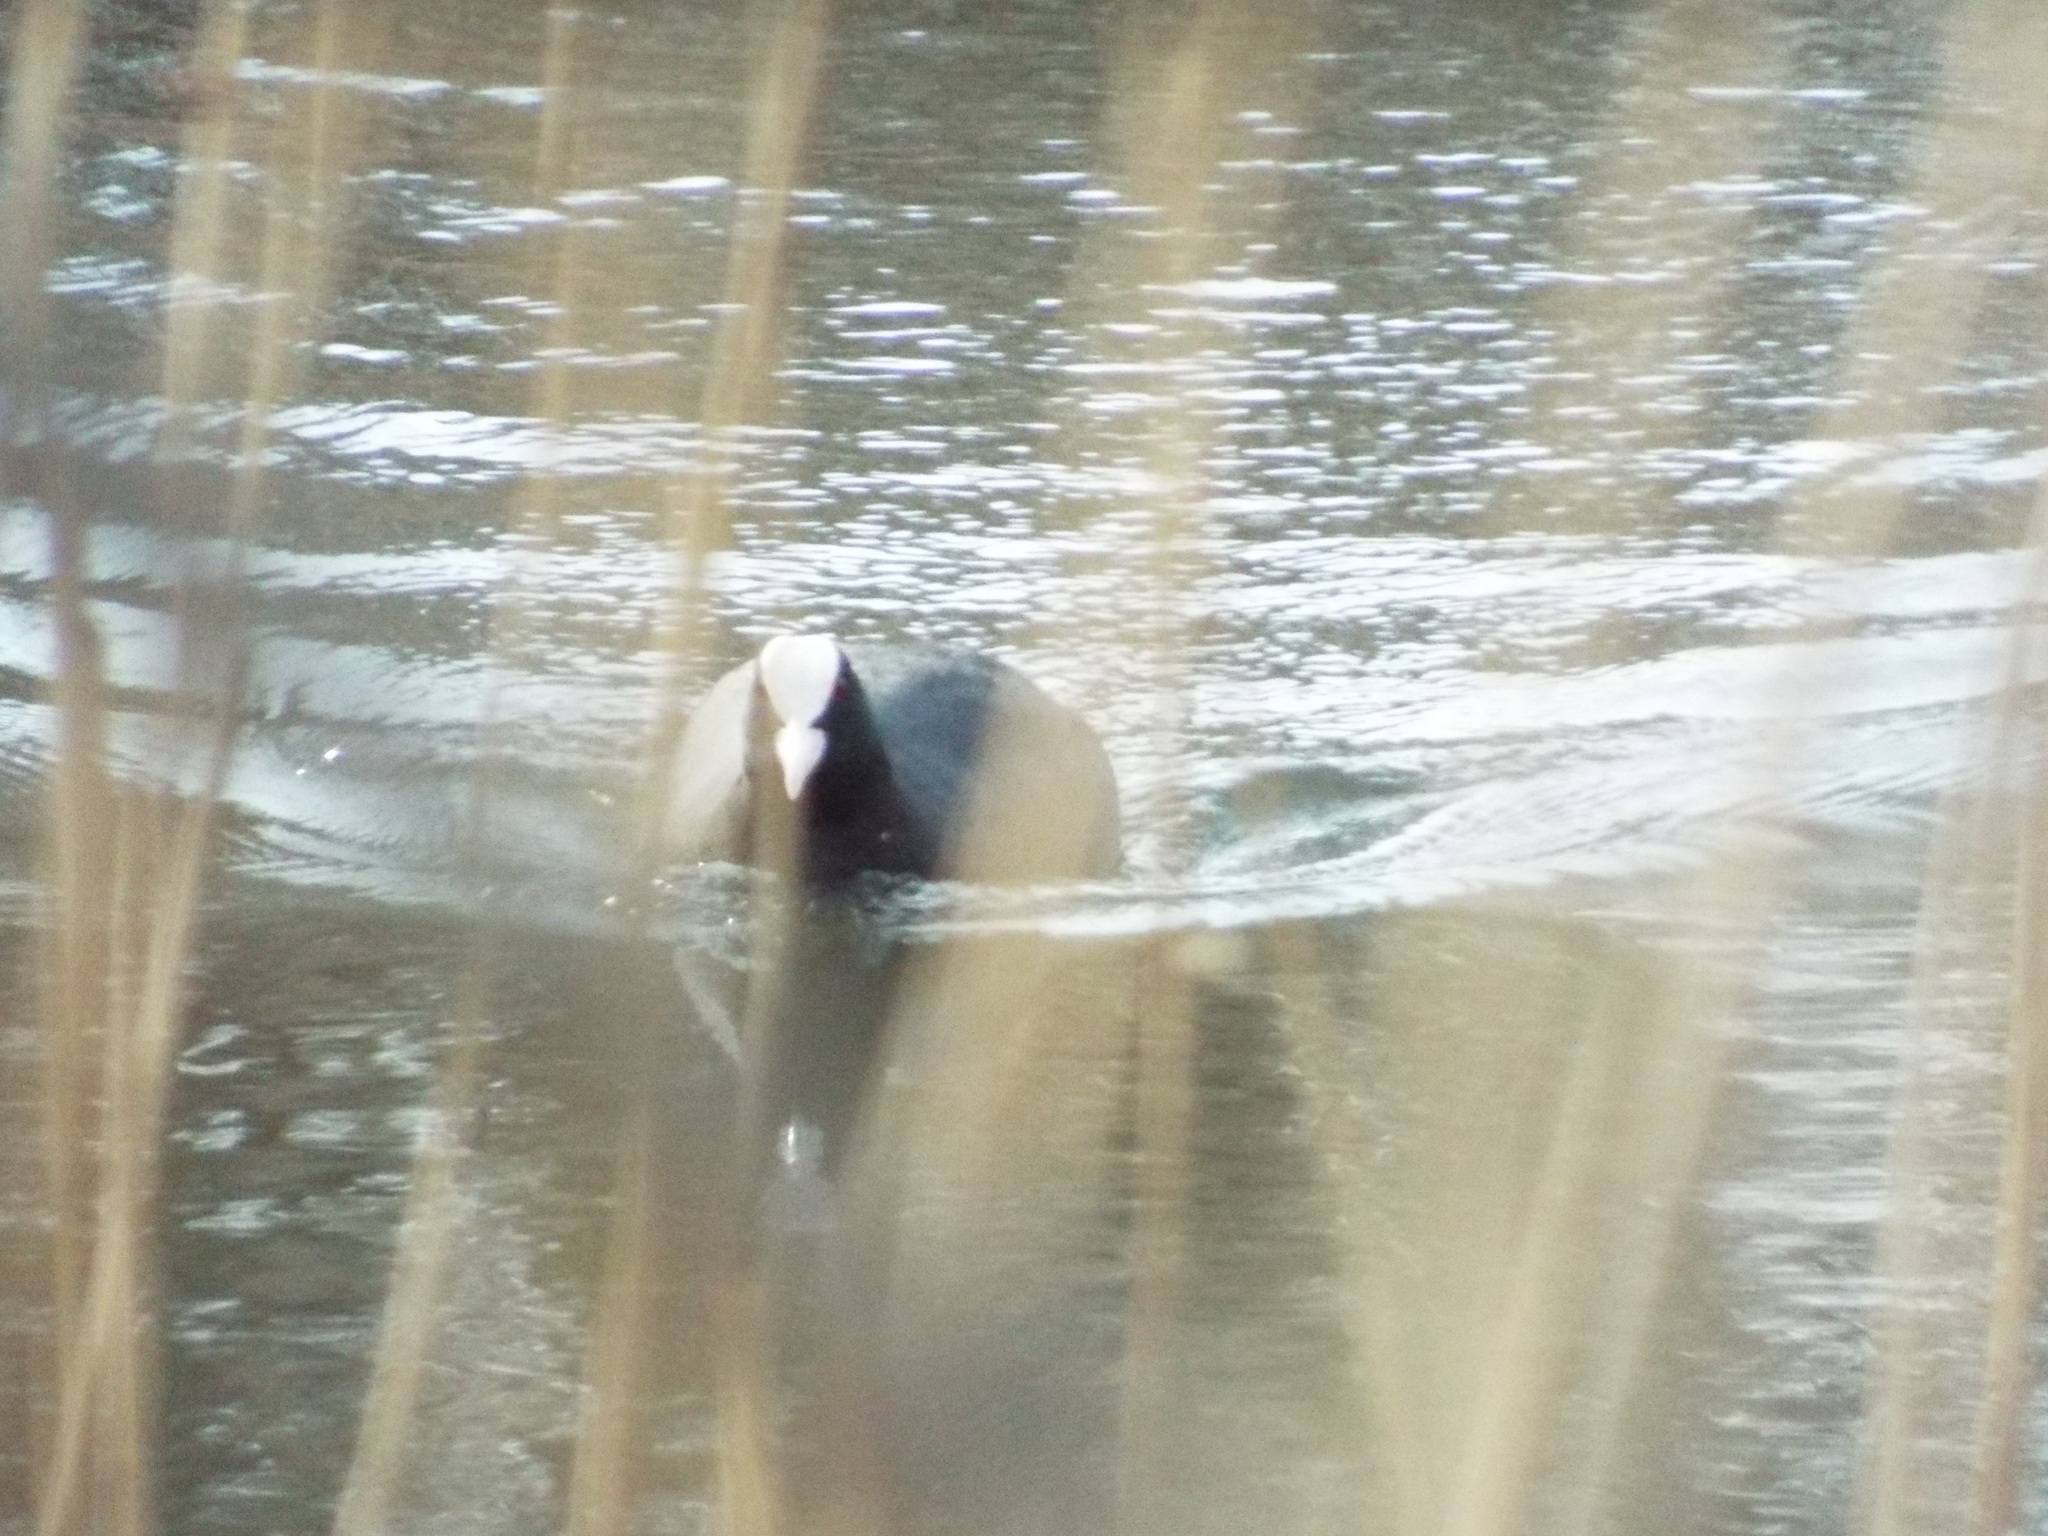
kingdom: Animalia
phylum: Chordata
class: Aves
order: Gruiformes
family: Rallidae
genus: Fulica
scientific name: Fulica atra
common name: Eurasian coot
